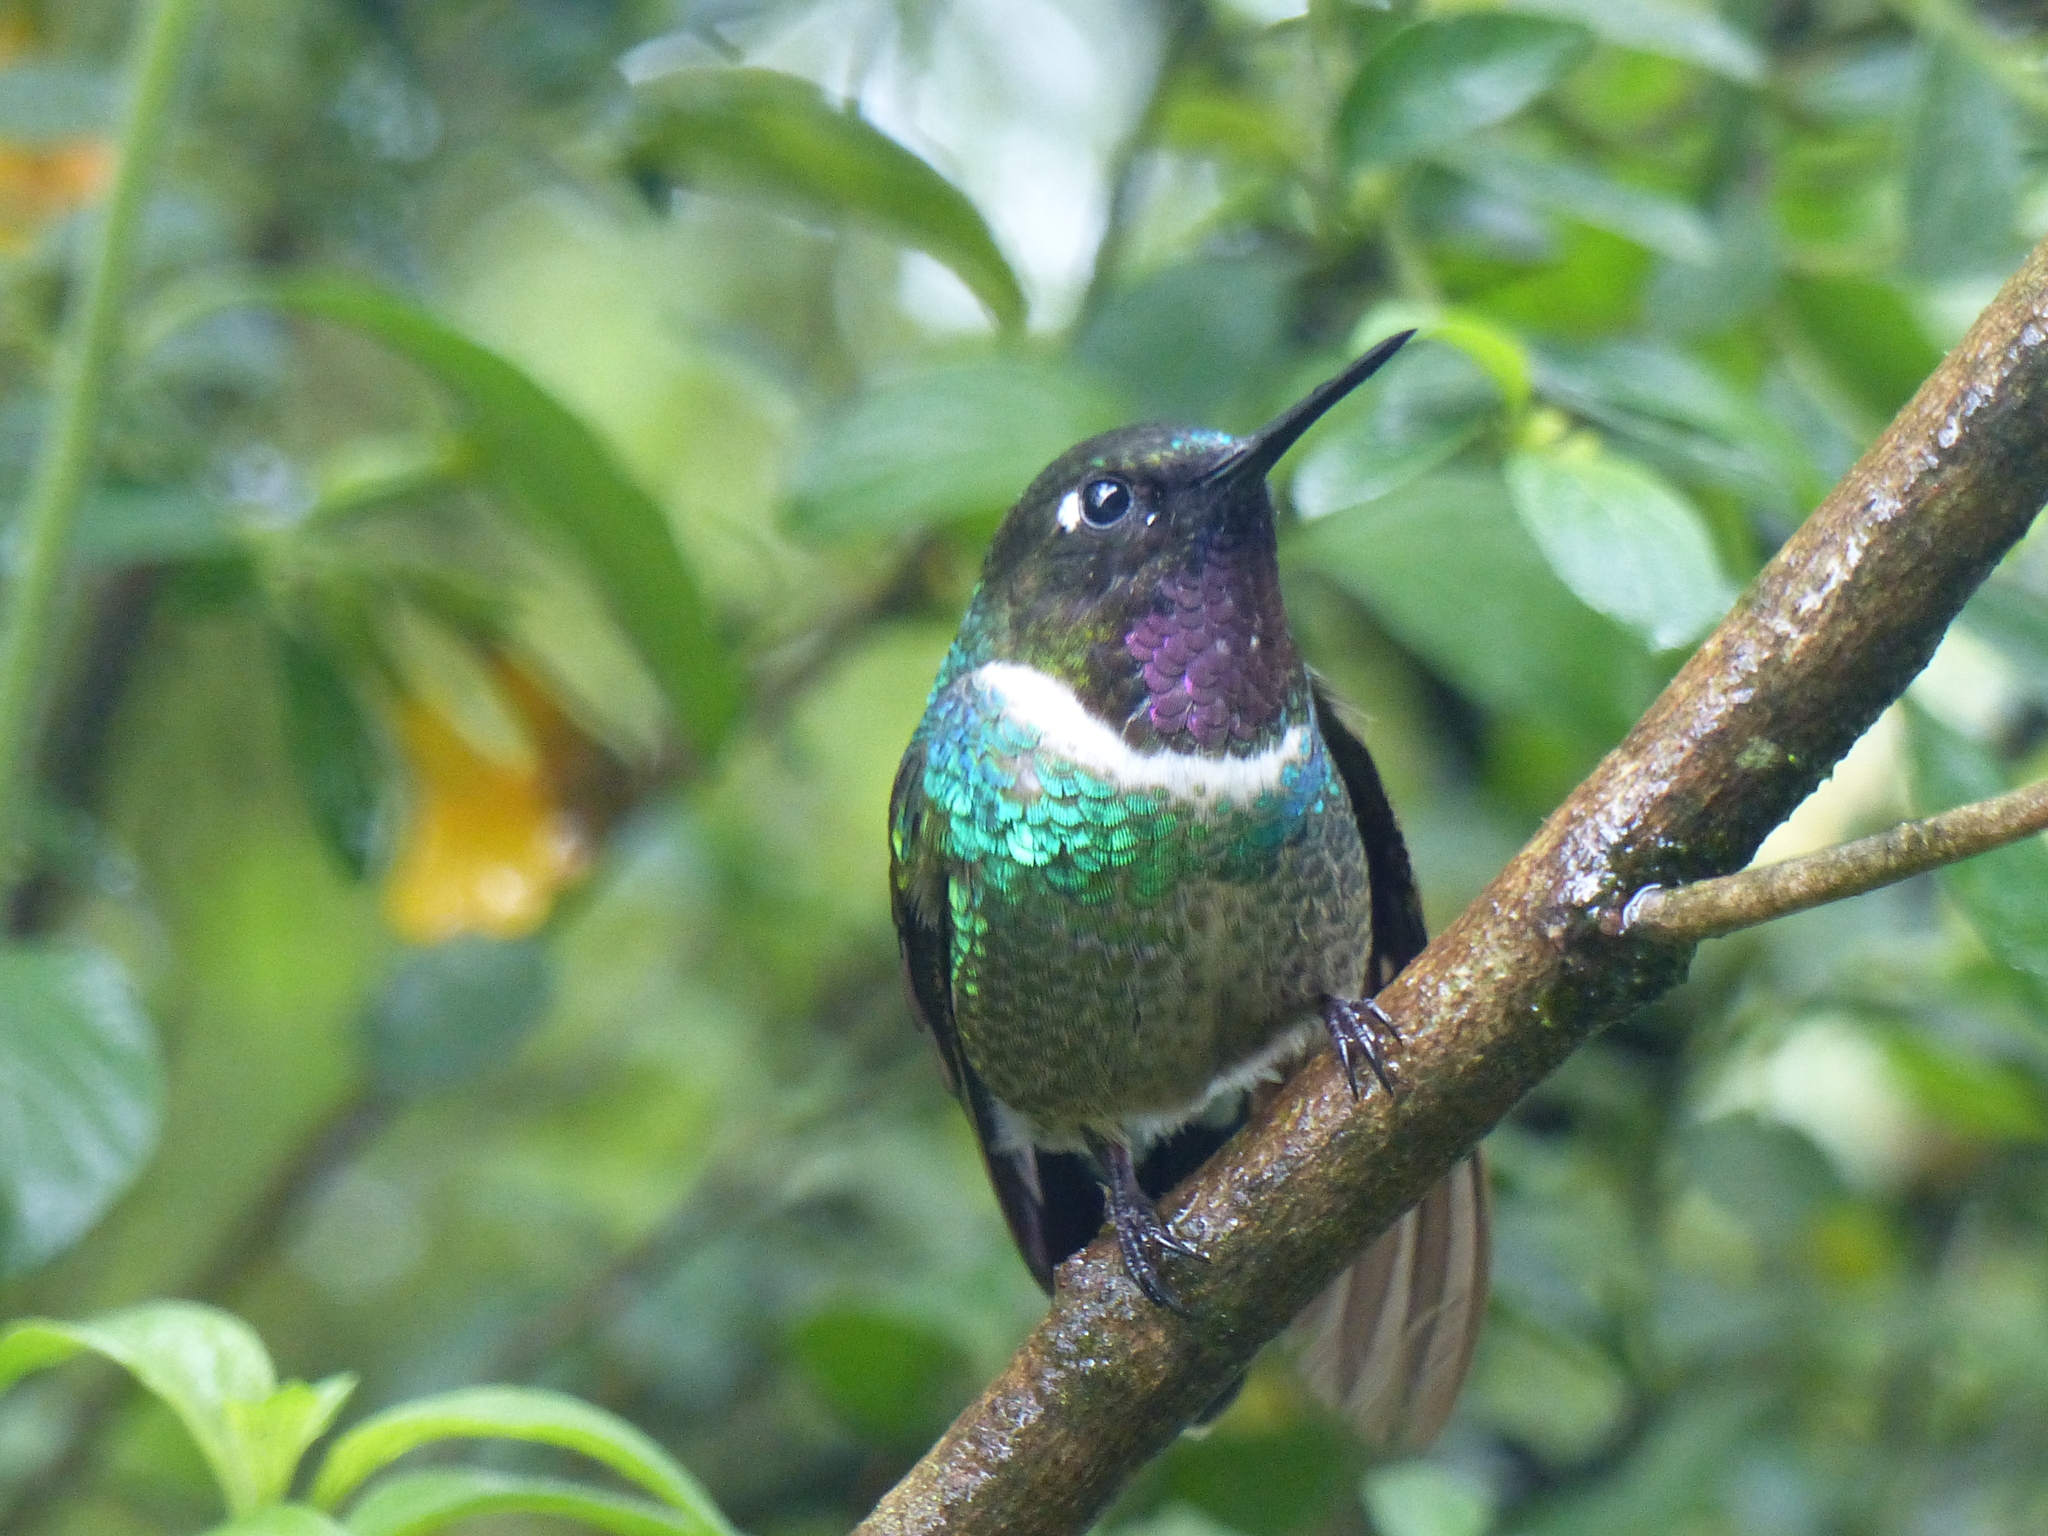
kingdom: Animalia
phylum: Chordata
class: Aves
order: Apodiformes
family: Trochilidae
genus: Heliangelus
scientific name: Heliangelus clarisse
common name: Longuemare's sunangel
